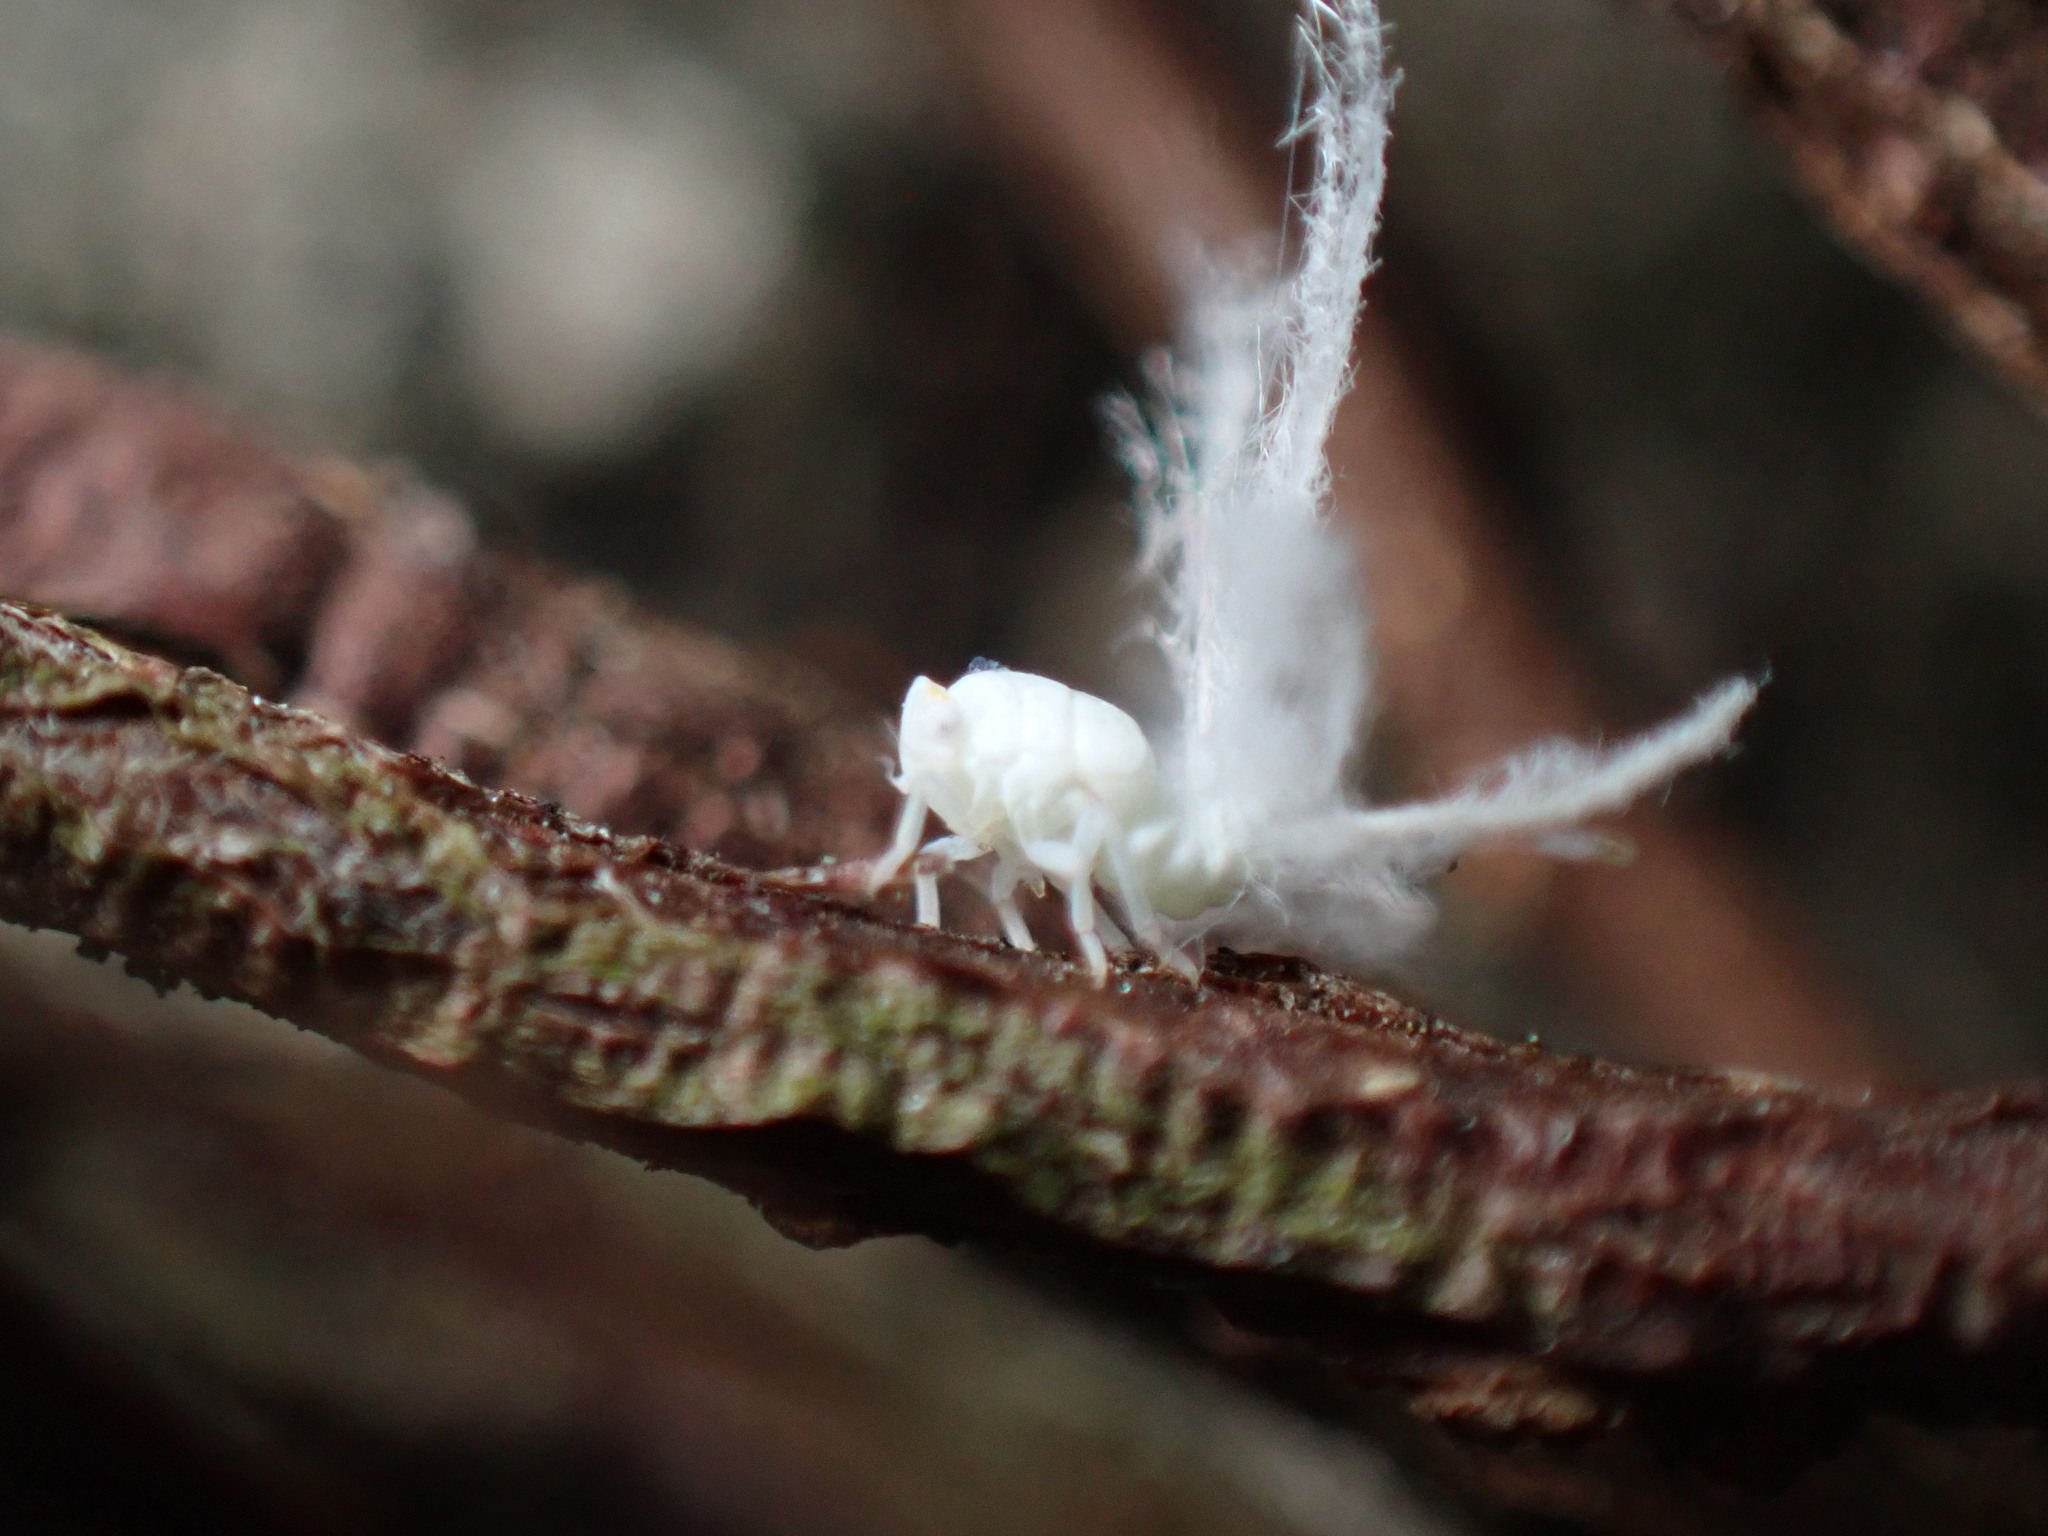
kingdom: Animalia
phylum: Arthropoda
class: Insecta
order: Hemiptera
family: Ricaniidae
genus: Ricania
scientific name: Ricania guttata
